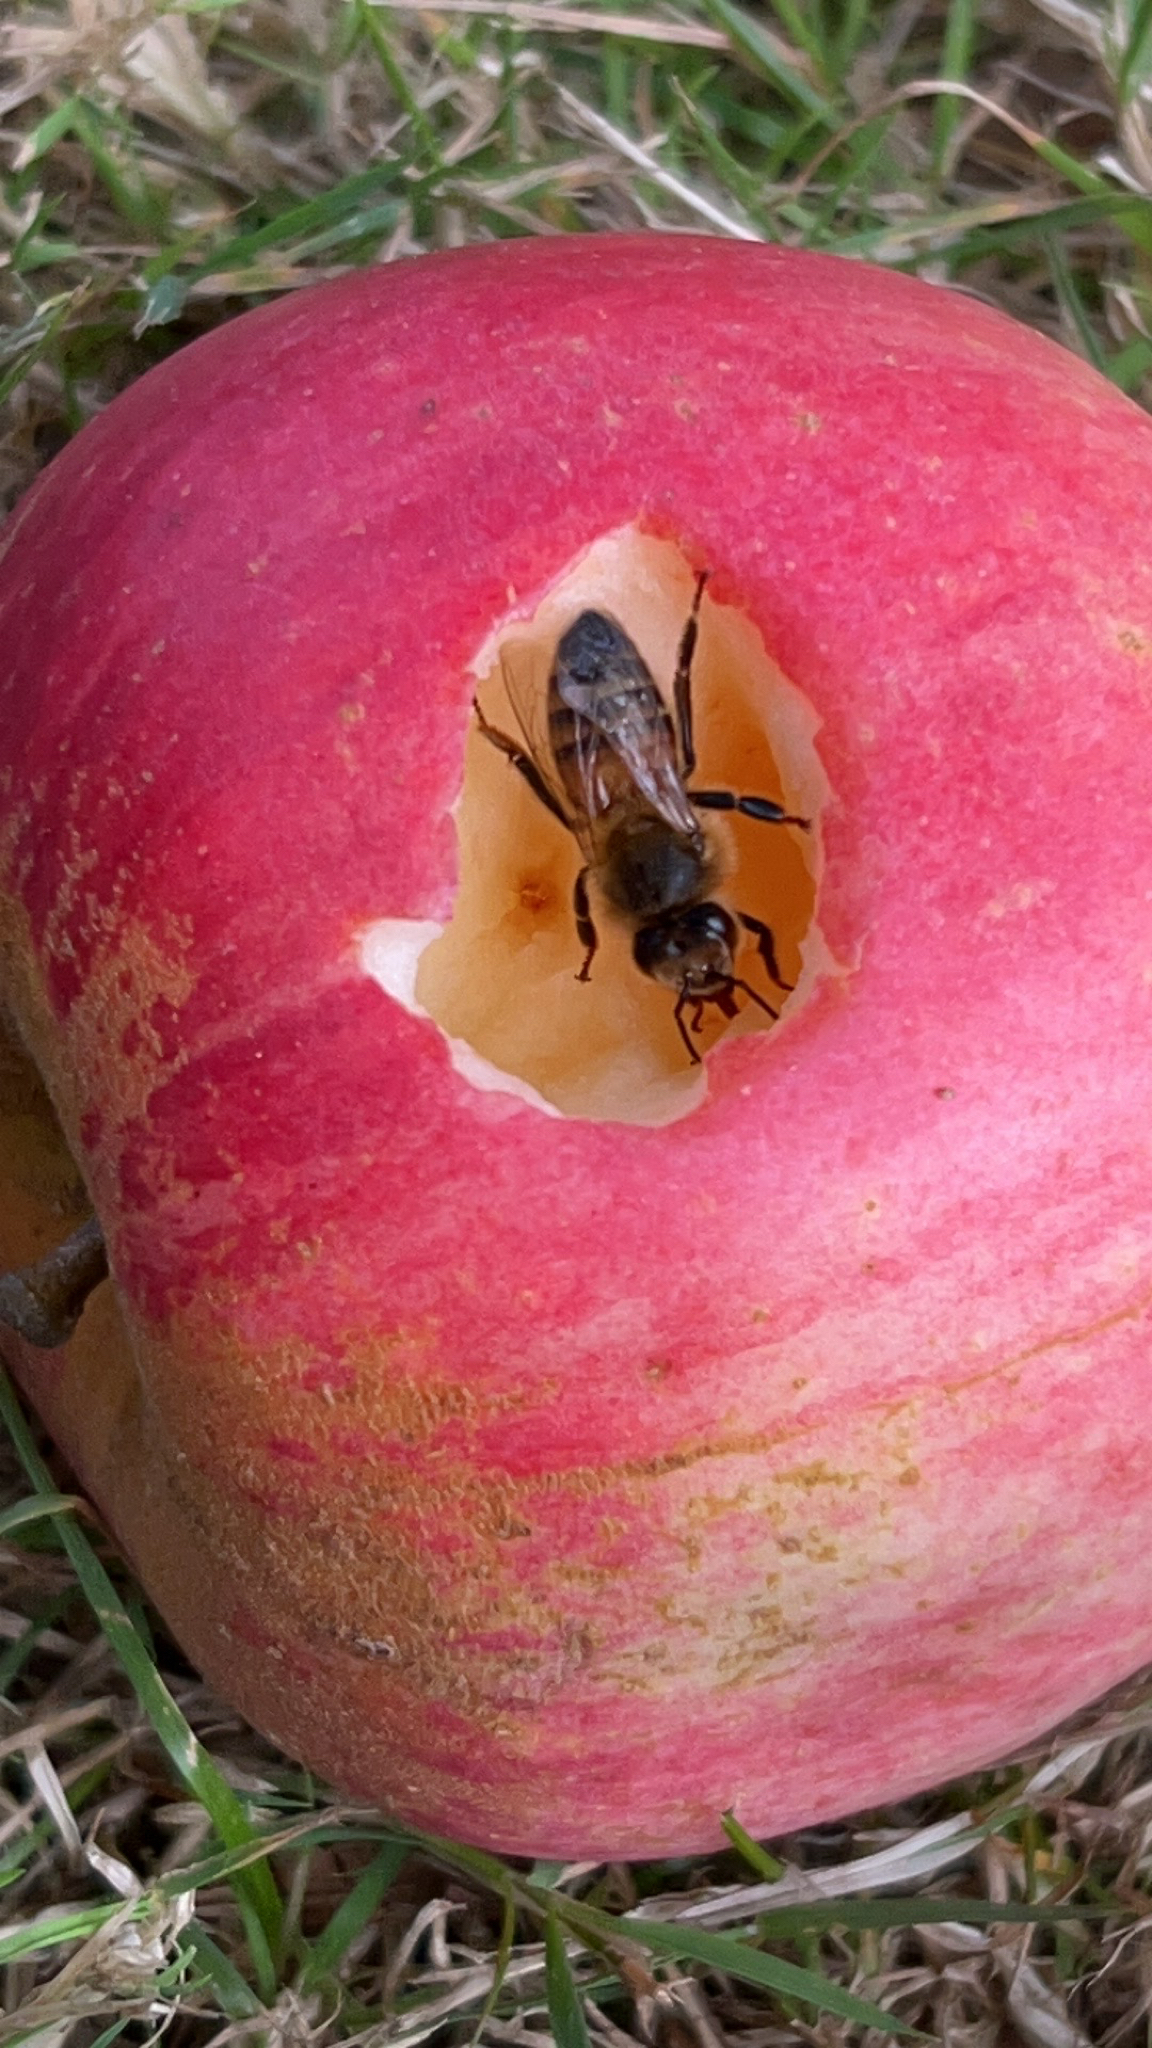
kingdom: Animalia
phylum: Arthropoda
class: Insecta
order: Hymenoptera
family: Apidae
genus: Apis
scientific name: Apis mellifera
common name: Honey bee
